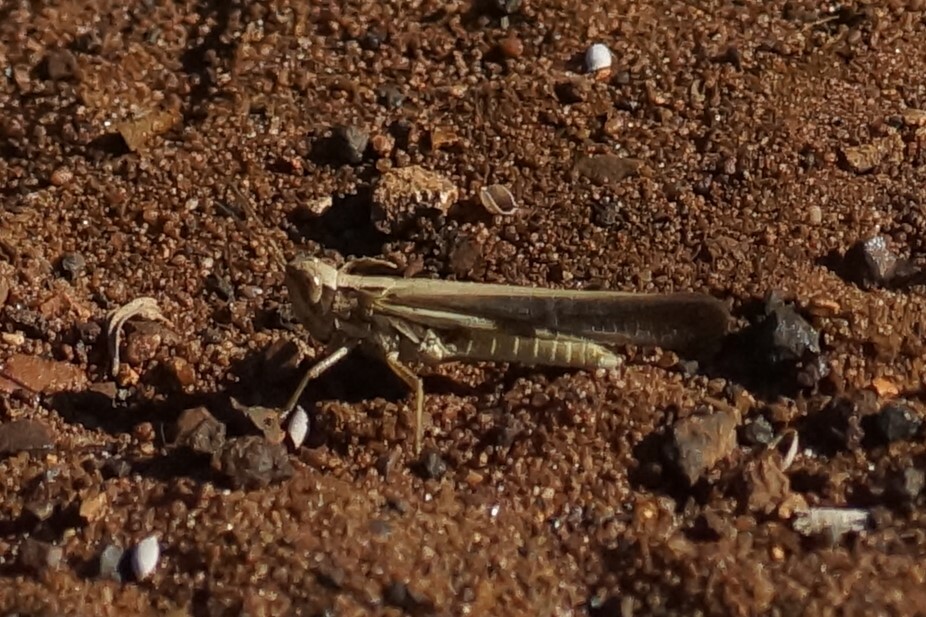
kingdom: Animalia
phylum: Arthropoda
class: Insecta
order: Orthoptera
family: Acrididae
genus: Aiolopus
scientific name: Aiolopus thalassinus
